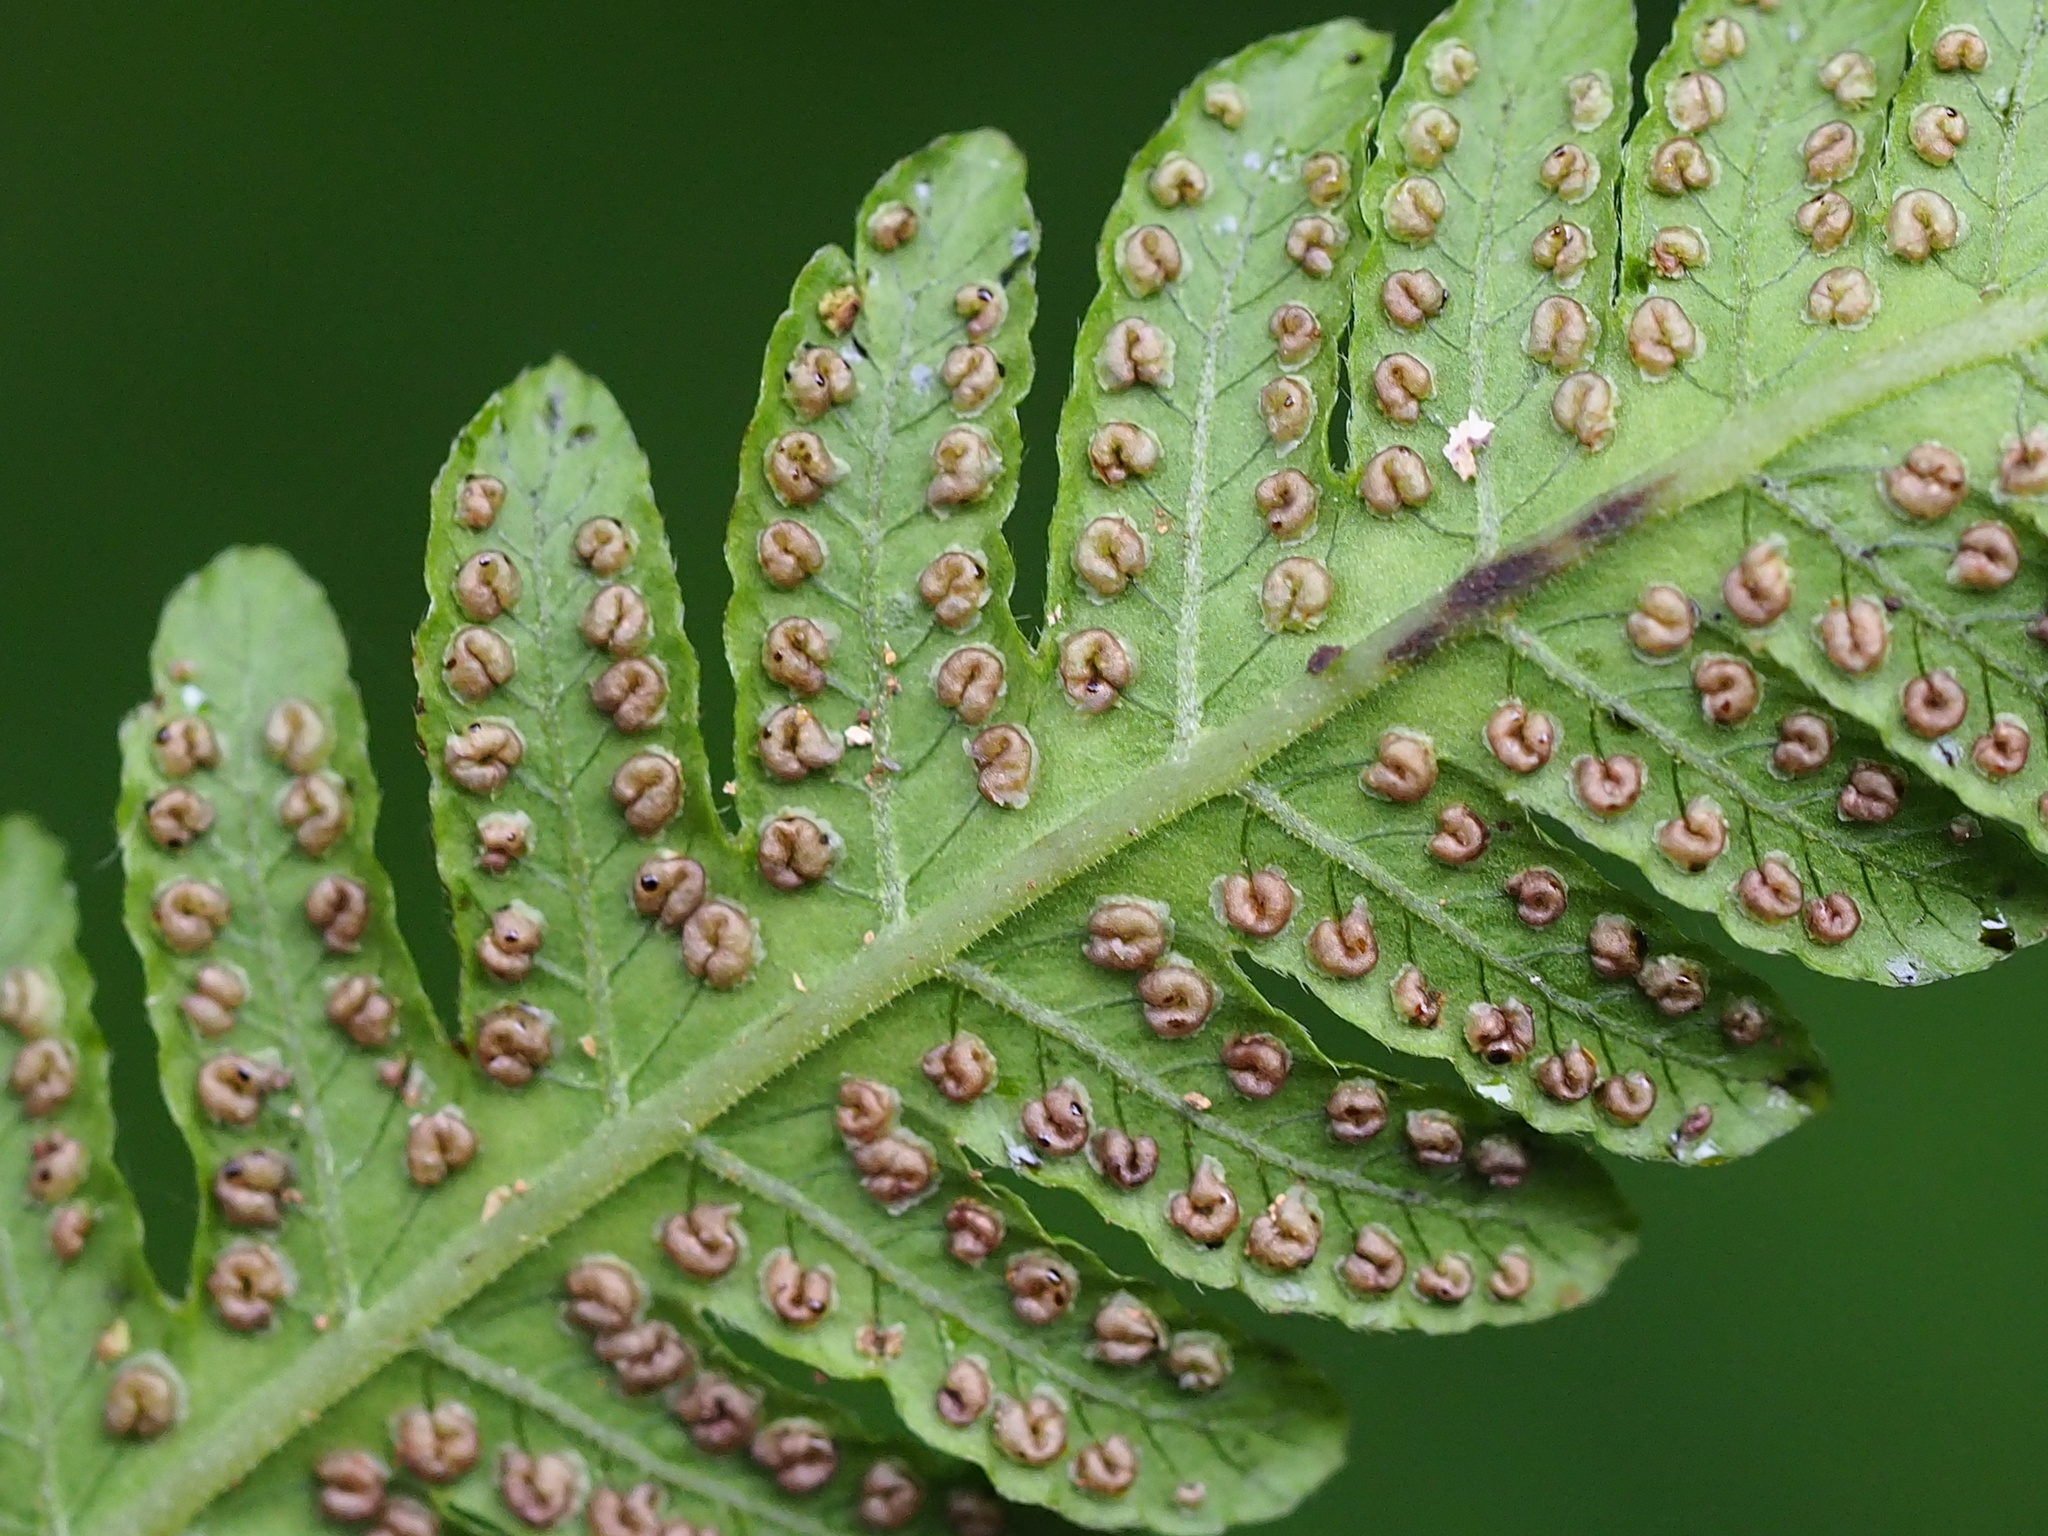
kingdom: Plantae
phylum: Tracheophyta
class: Polypodiopsida
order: Polypodiales
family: Thelypteridaceae
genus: Pseudocyclosorus
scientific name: Pseudocyclosorus esquirolii
